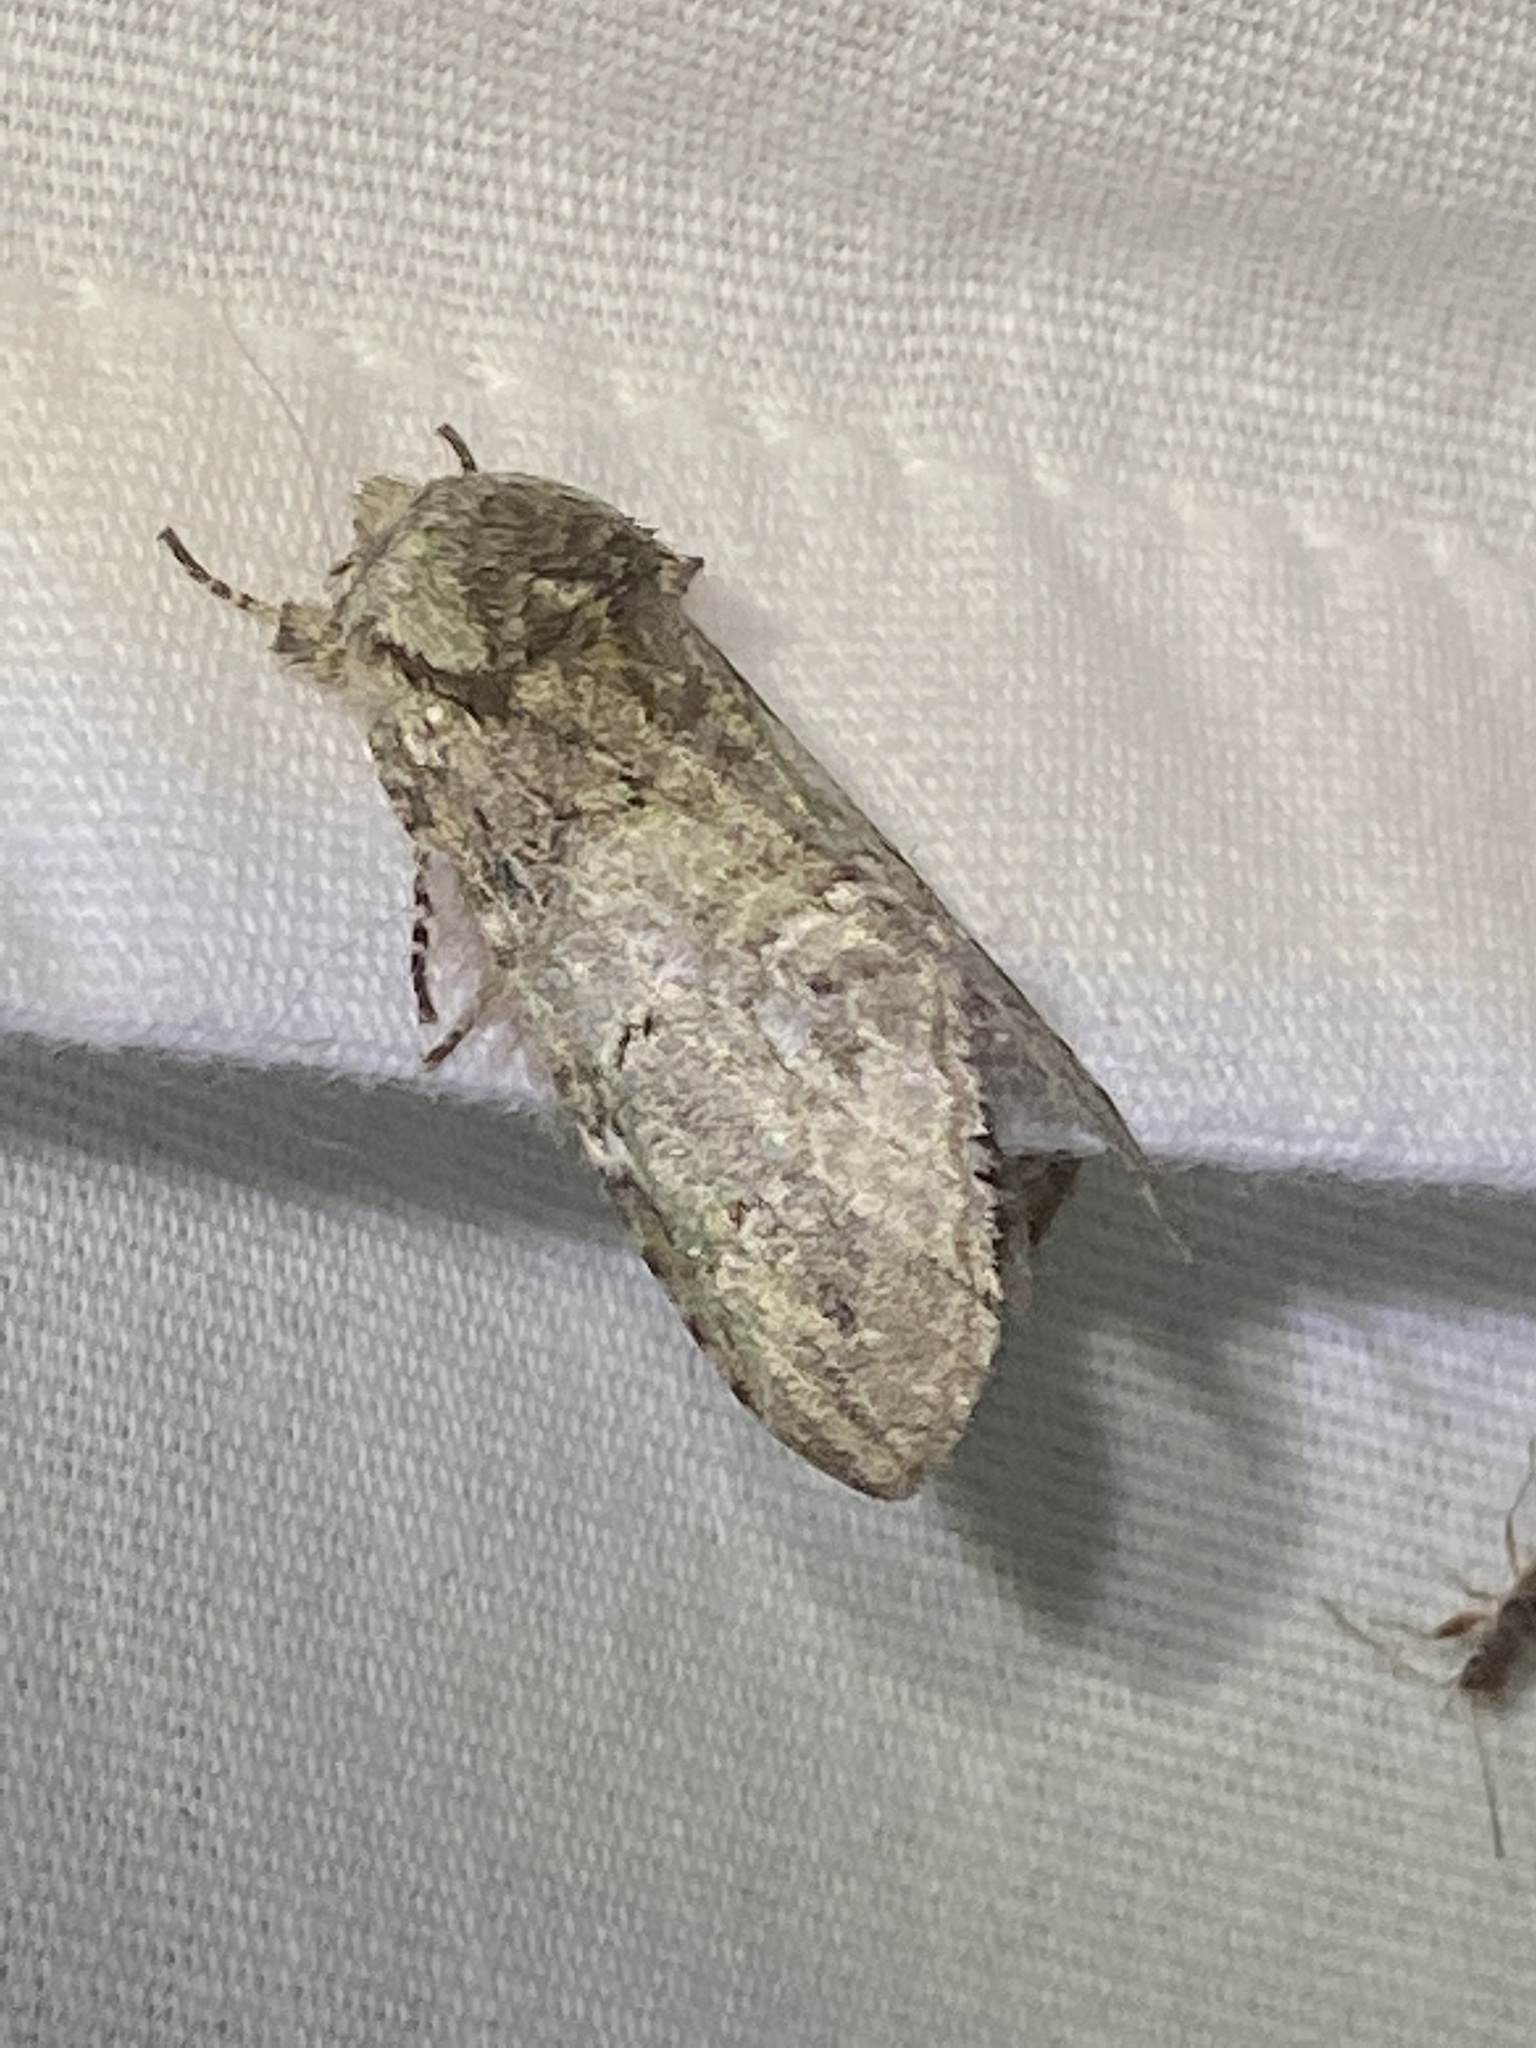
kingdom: Animalia
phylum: Arthropoda
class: Insecta
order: Lepidoptera
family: Notodontidae
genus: Macrurocampa
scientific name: Macrurocampa marthesia
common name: Mottled prominent
